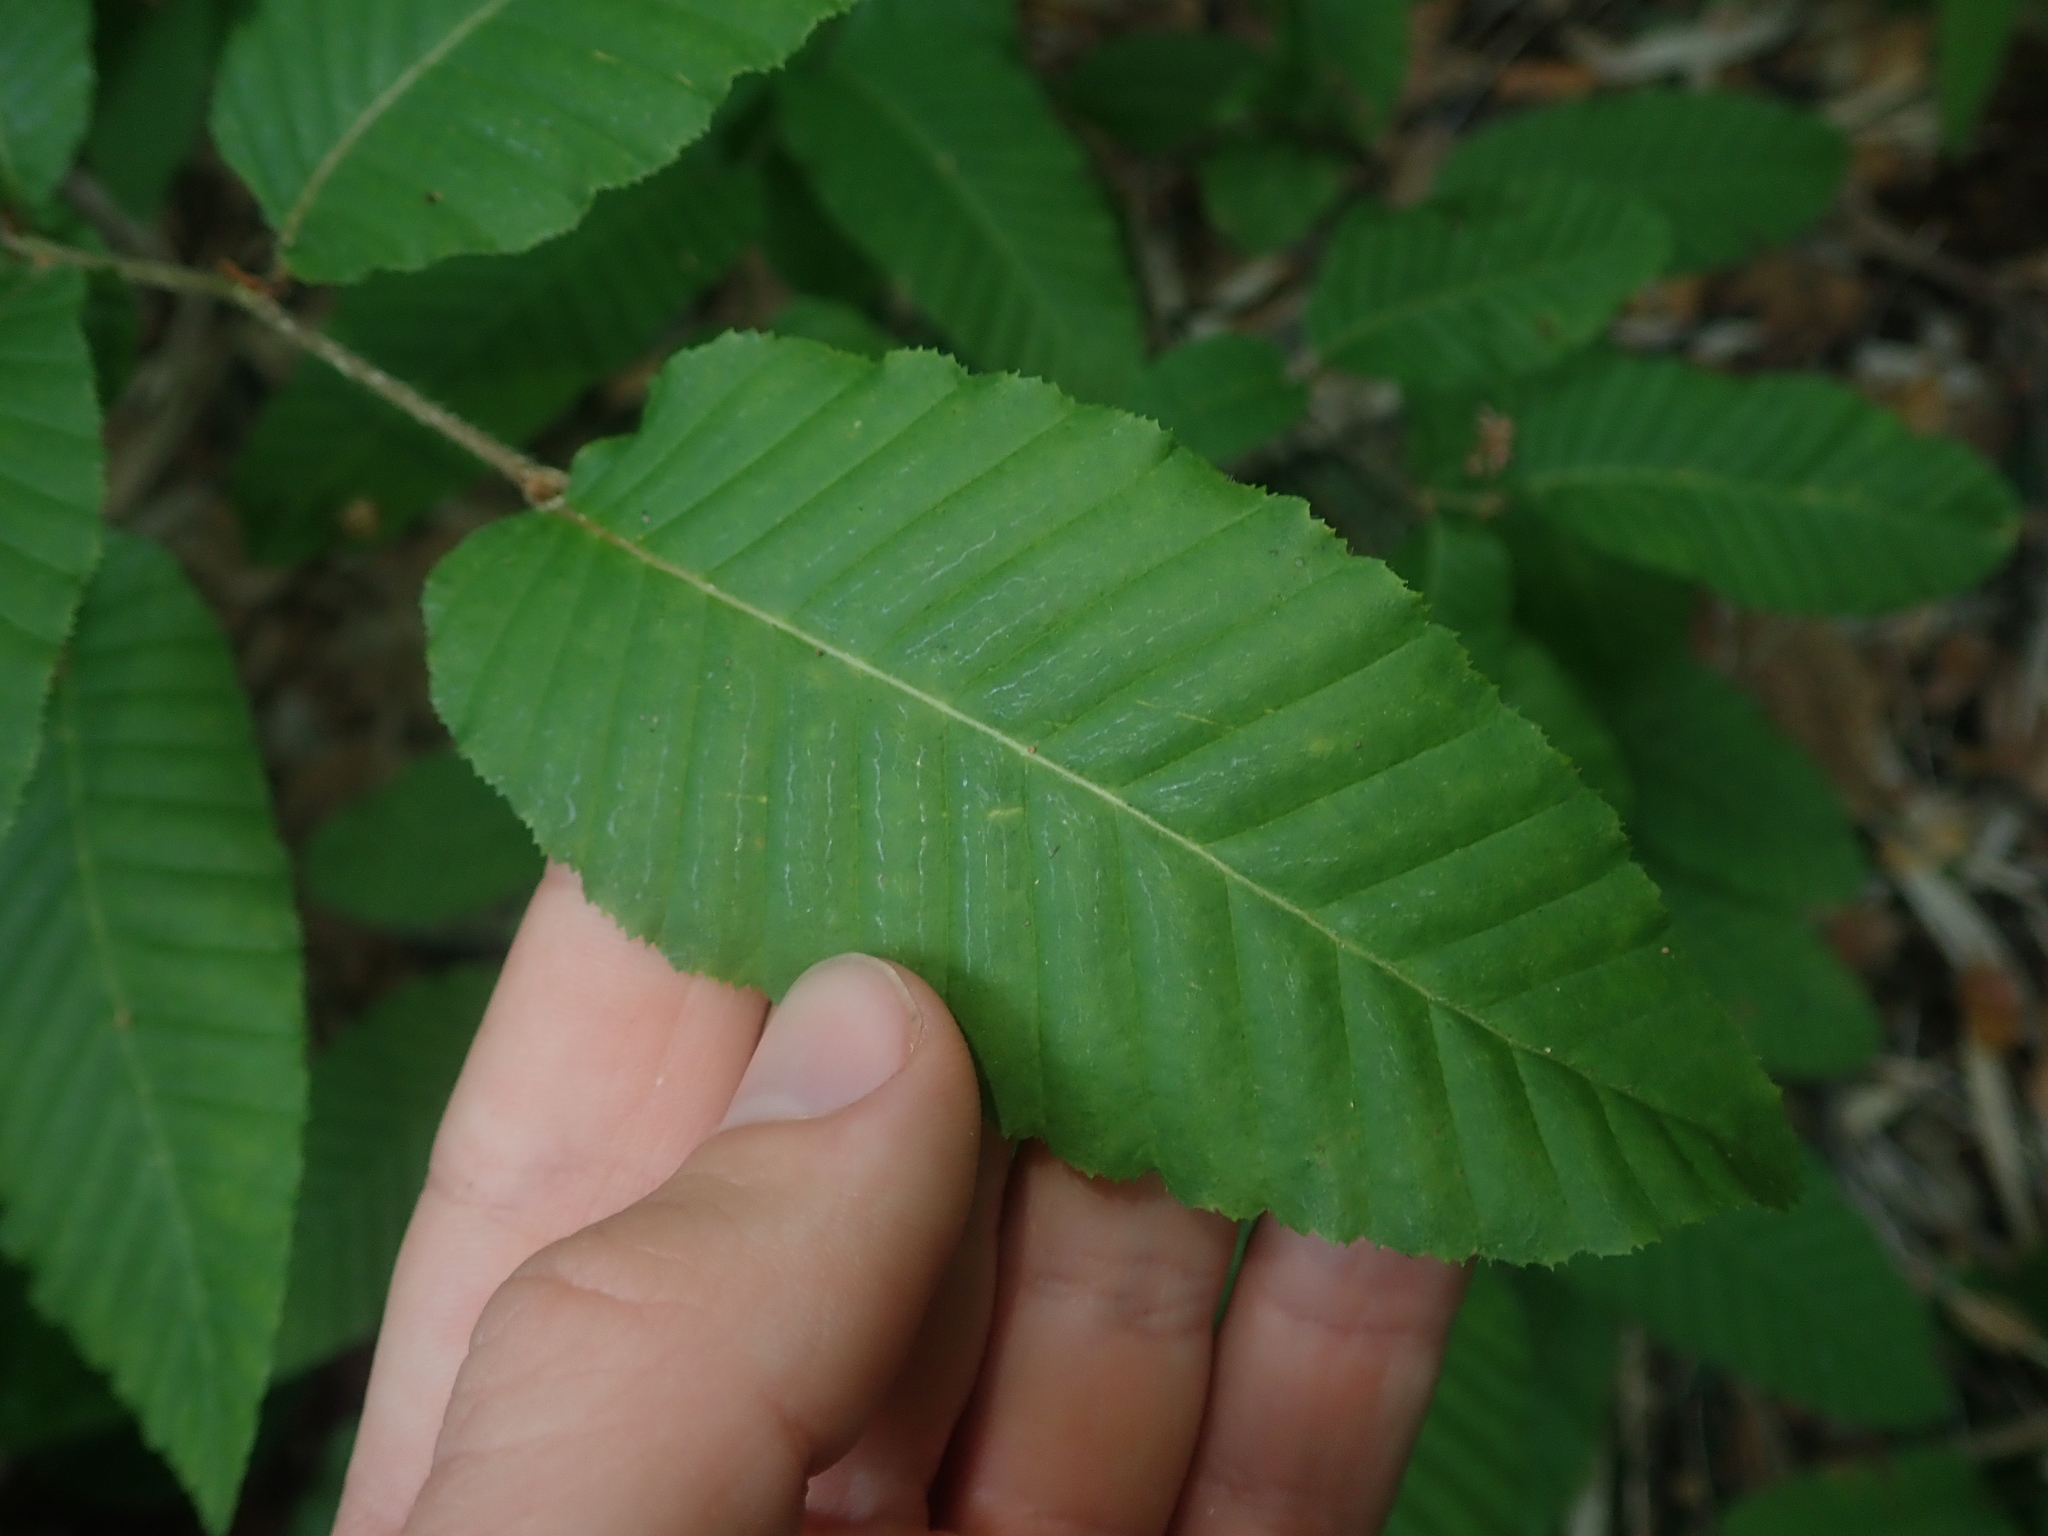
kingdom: Plantae
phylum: Tracheophyta
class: Magnoliopsida
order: Fagales
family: Nothofagaceae
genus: Nothofagus
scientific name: Nothofagus alpina
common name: Rauli
